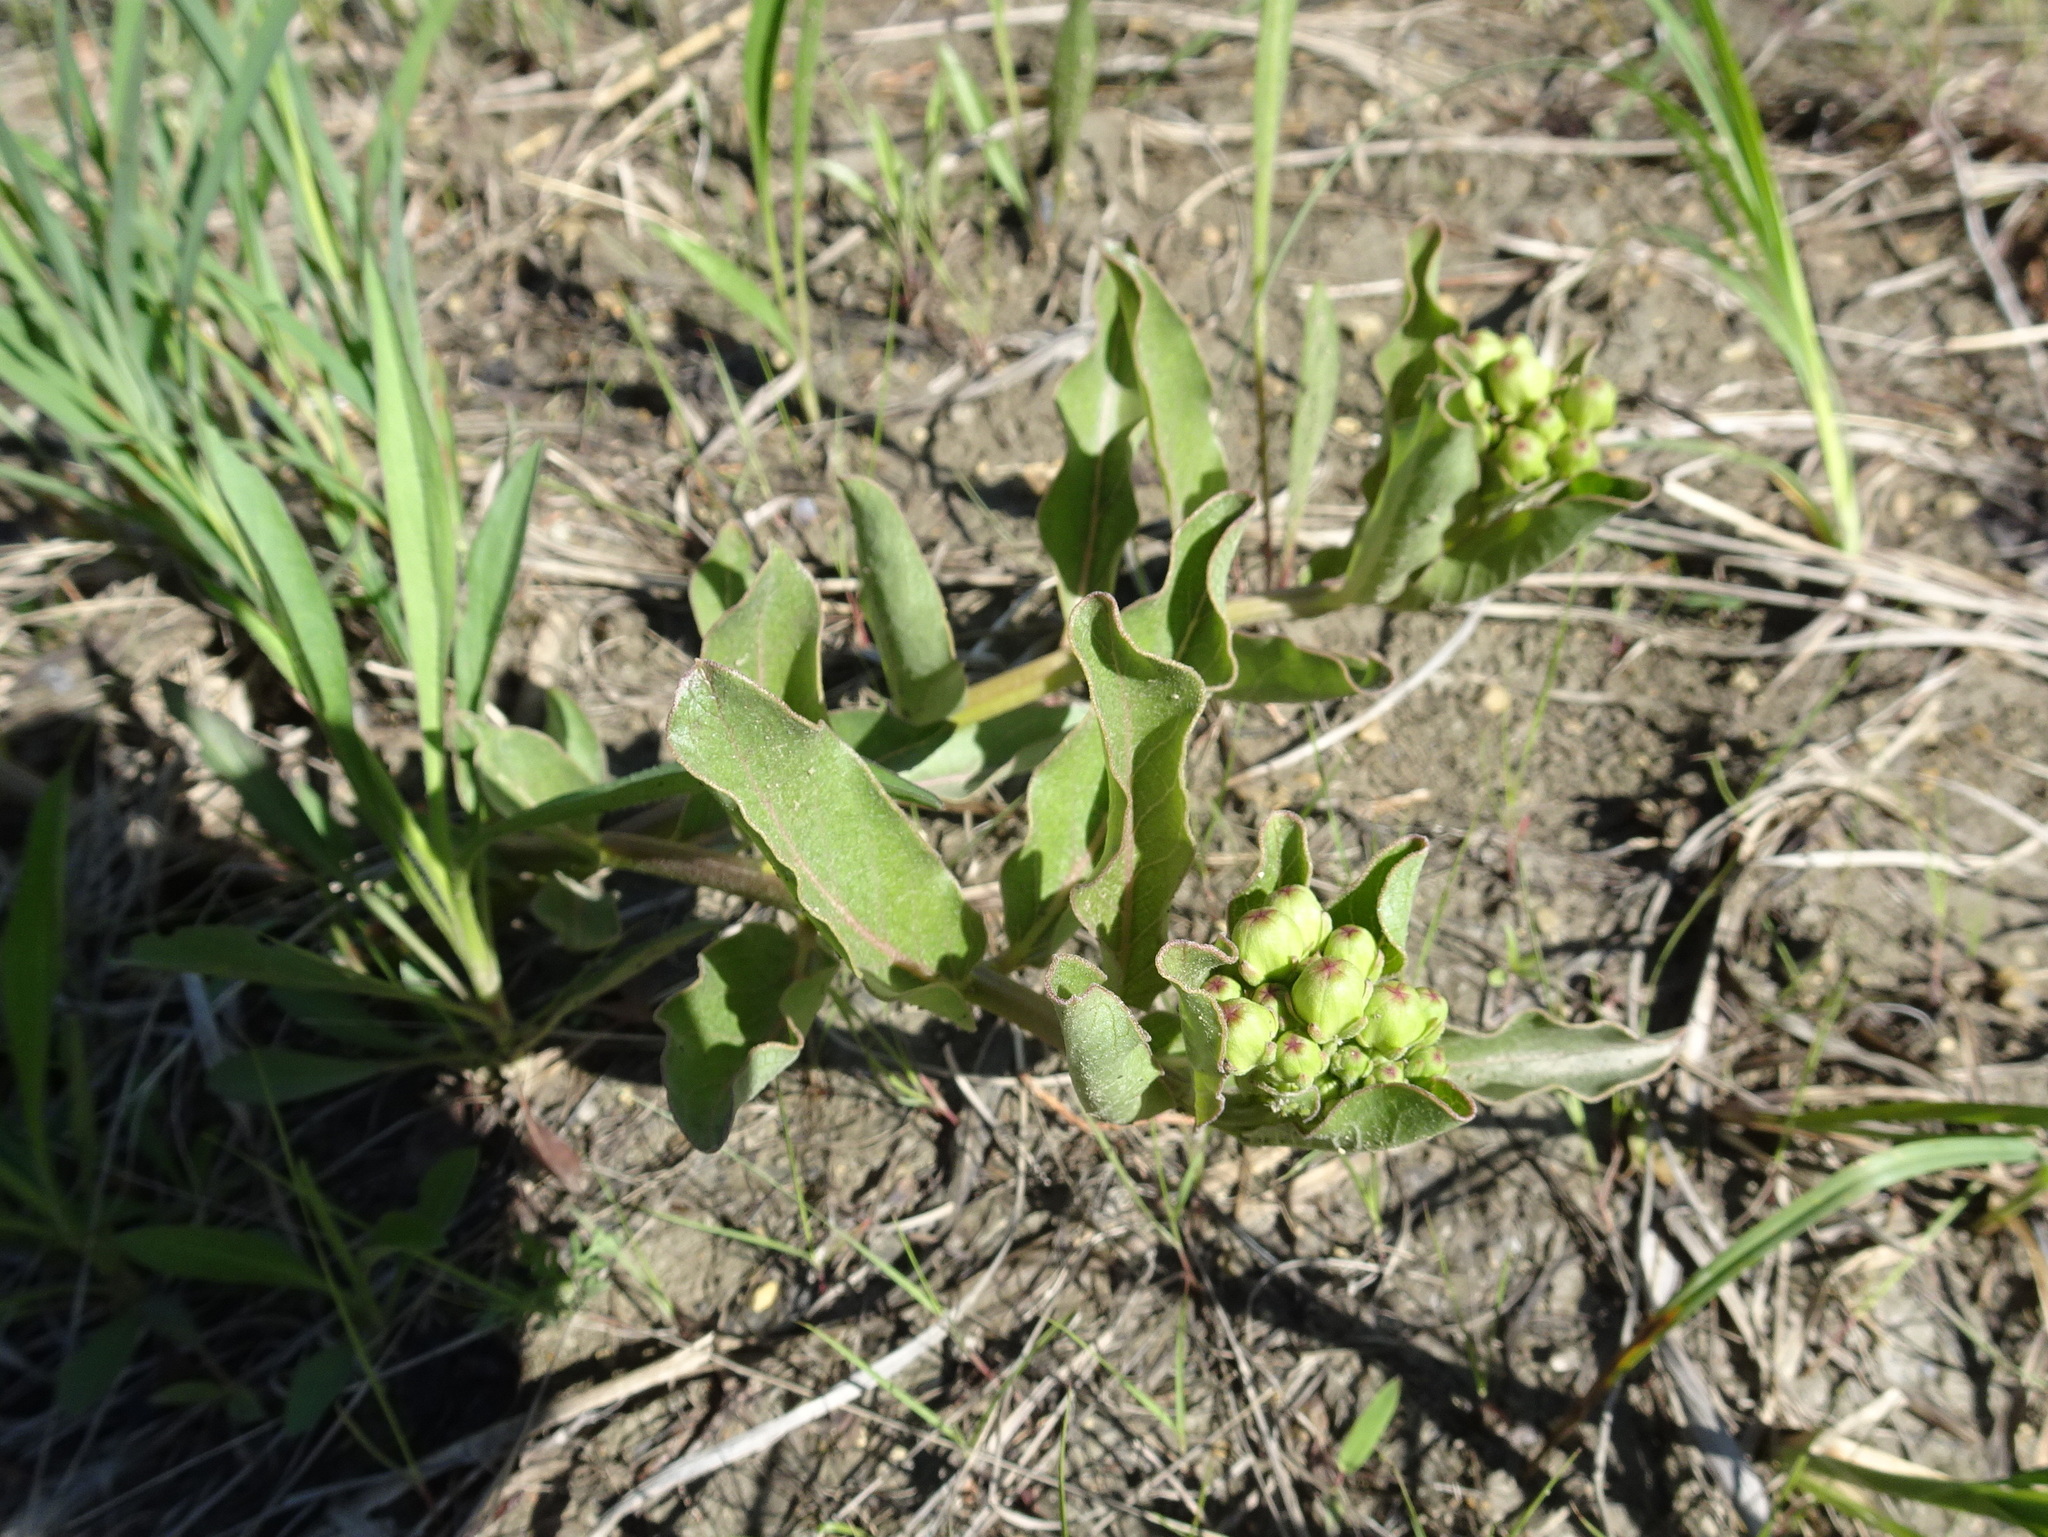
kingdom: Plantae
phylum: Tracheophyta
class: Magnoliopsida
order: Gentianales
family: Apocynaceae
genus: Asclepias
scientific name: Asclepias viridis
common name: Antelope-horns
